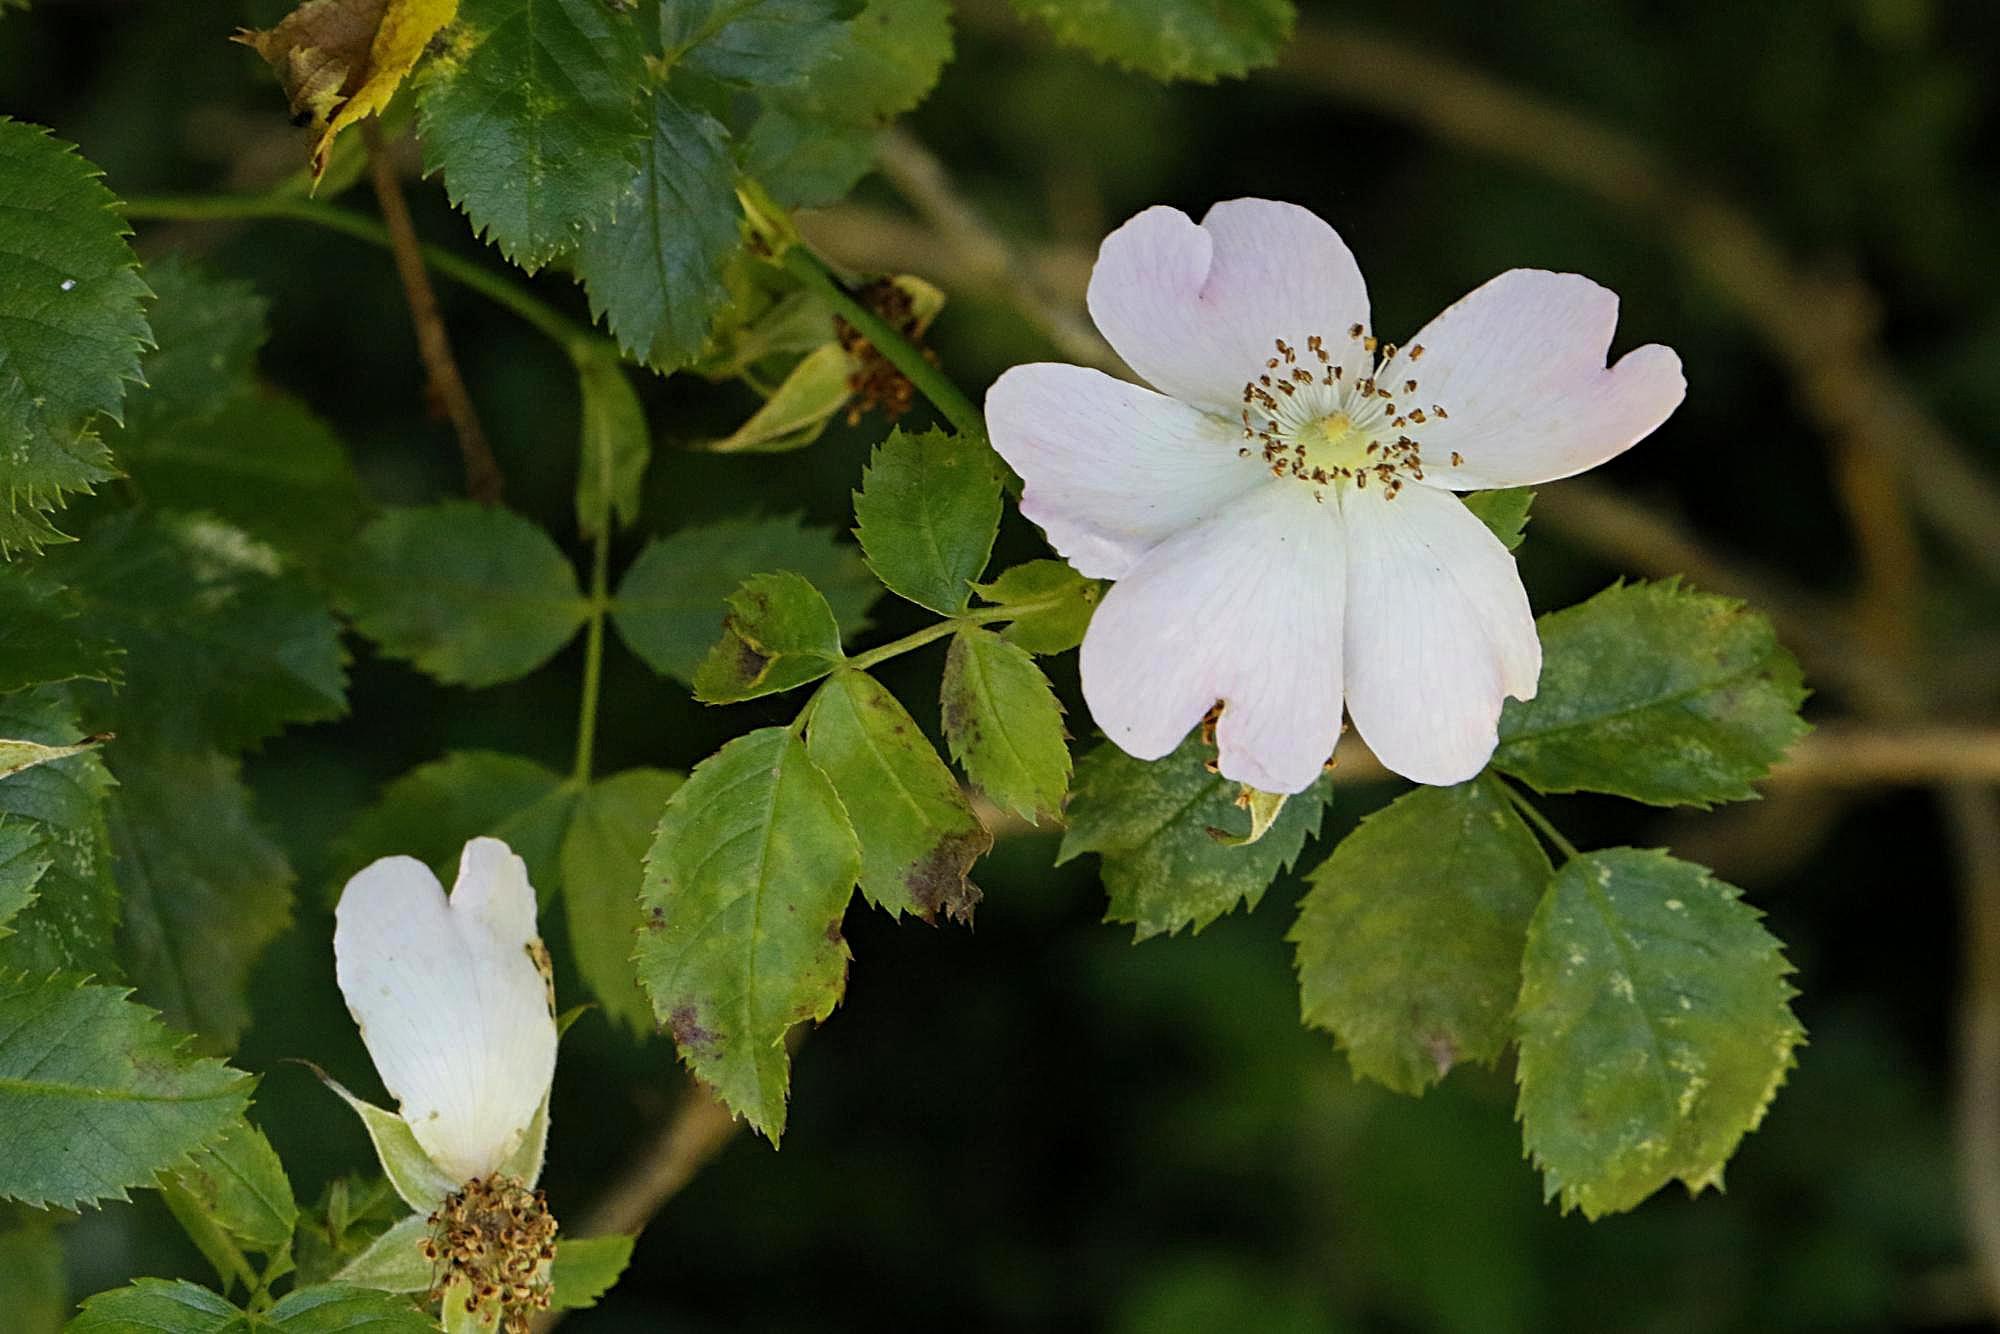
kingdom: Plantae
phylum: Tracheophyta
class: Magnoliopsida
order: Rosales
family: Rosaceae
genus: Rosa
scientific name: Rosa canina
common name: Dog rose
